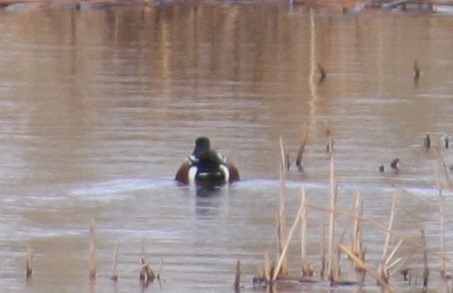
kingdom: Animalia
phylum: Chordata
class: Aves
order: Anseriformes
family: Anatidae
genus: Spatula
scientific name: Spatula clypeata
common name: Northern shoveler
